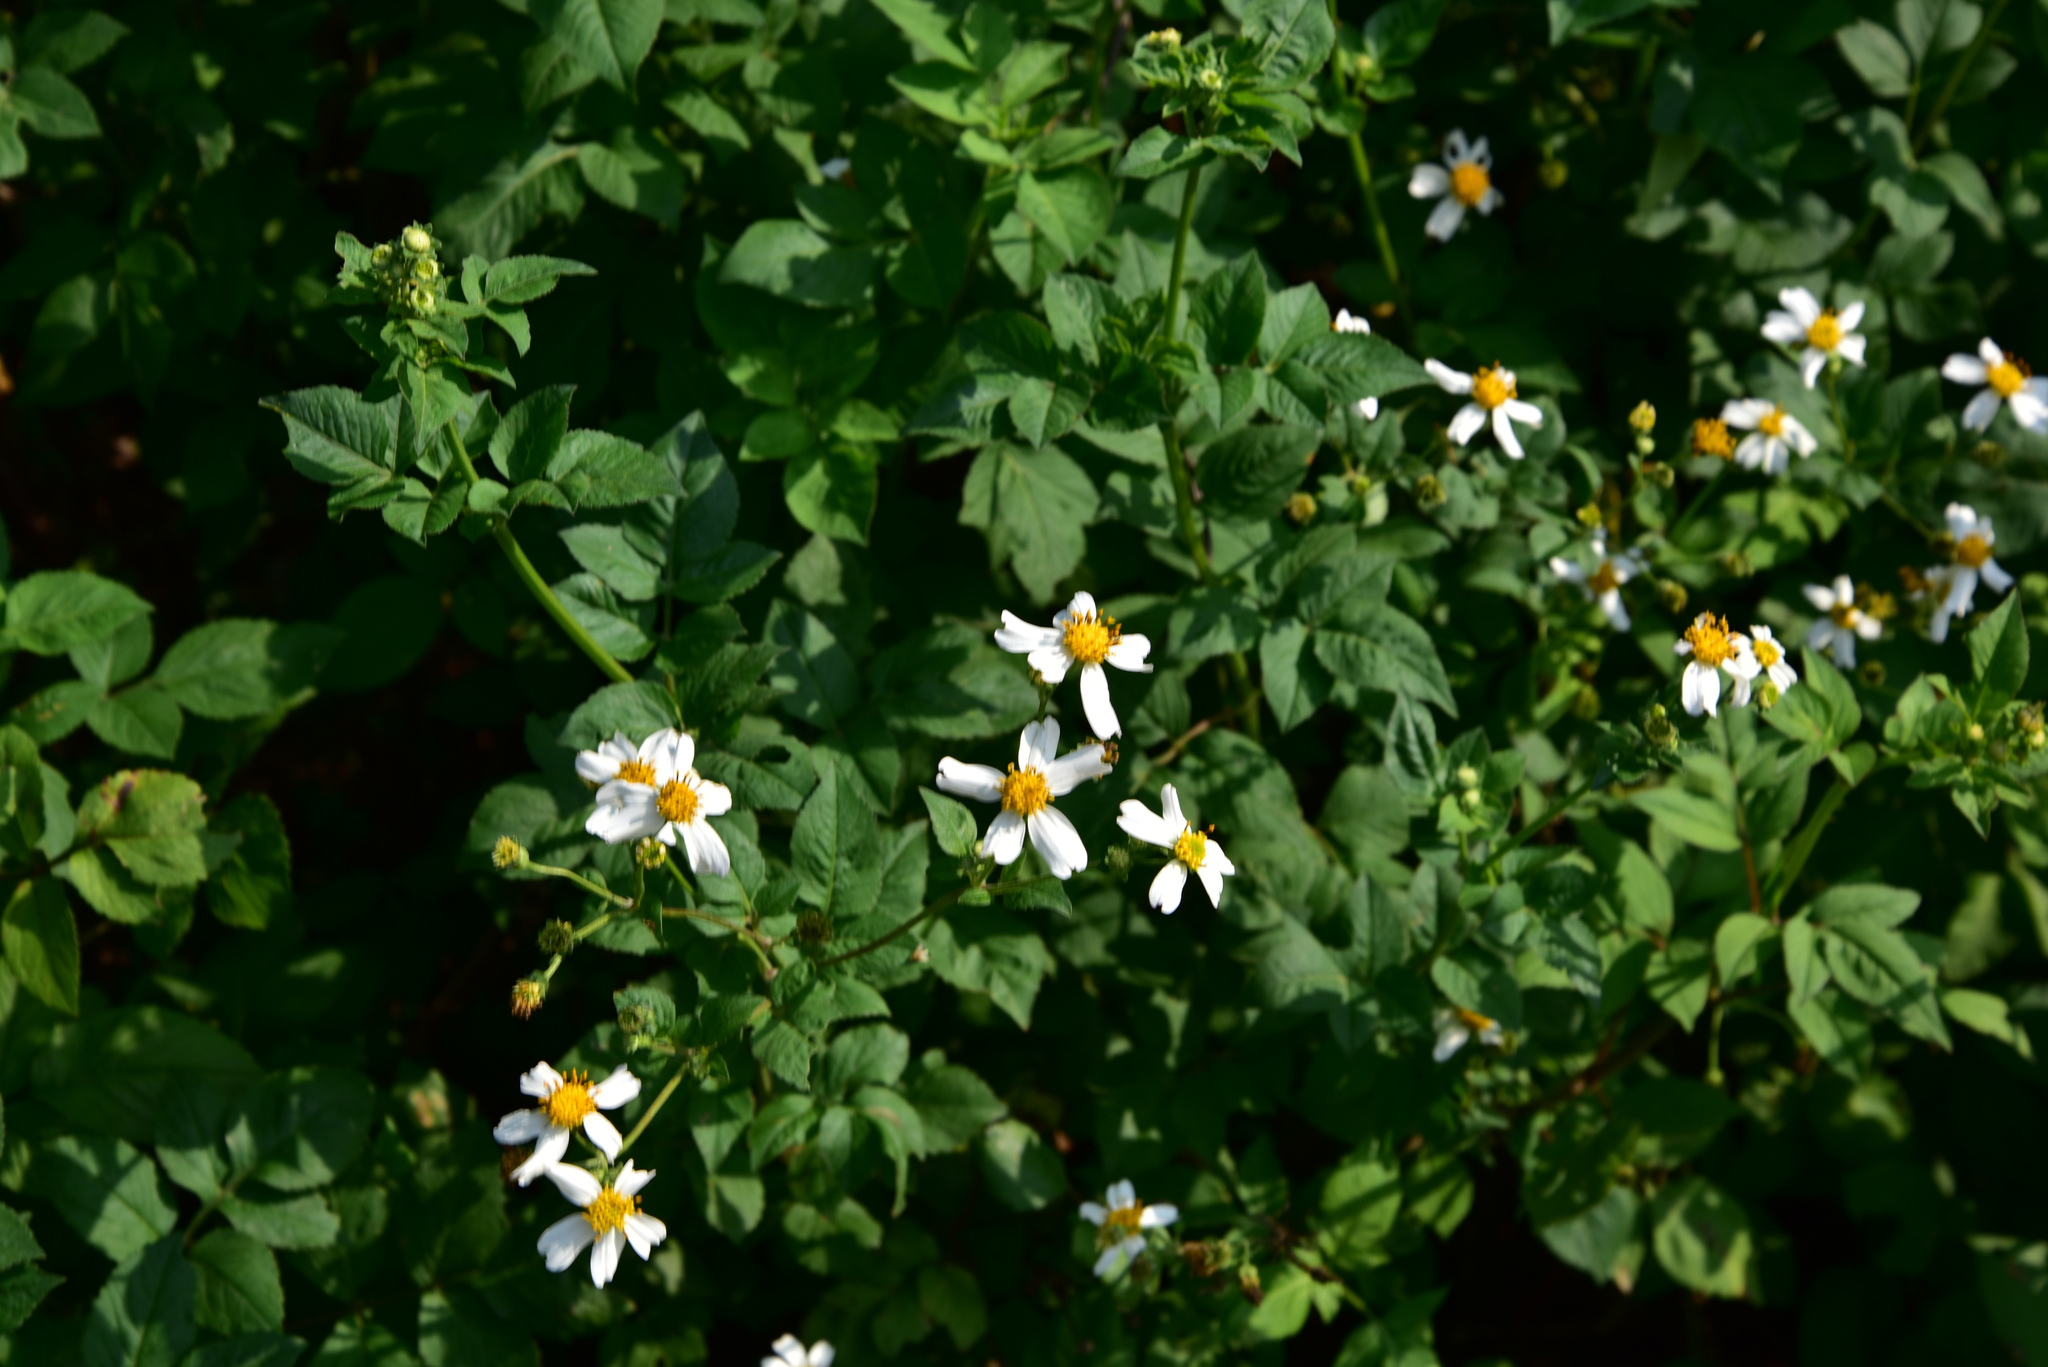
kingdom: Plantae
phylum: Tracheophyta
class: Magnoliopsida
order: Asterales
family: Asteraceae
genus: Bidens
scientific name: Bidens alba
